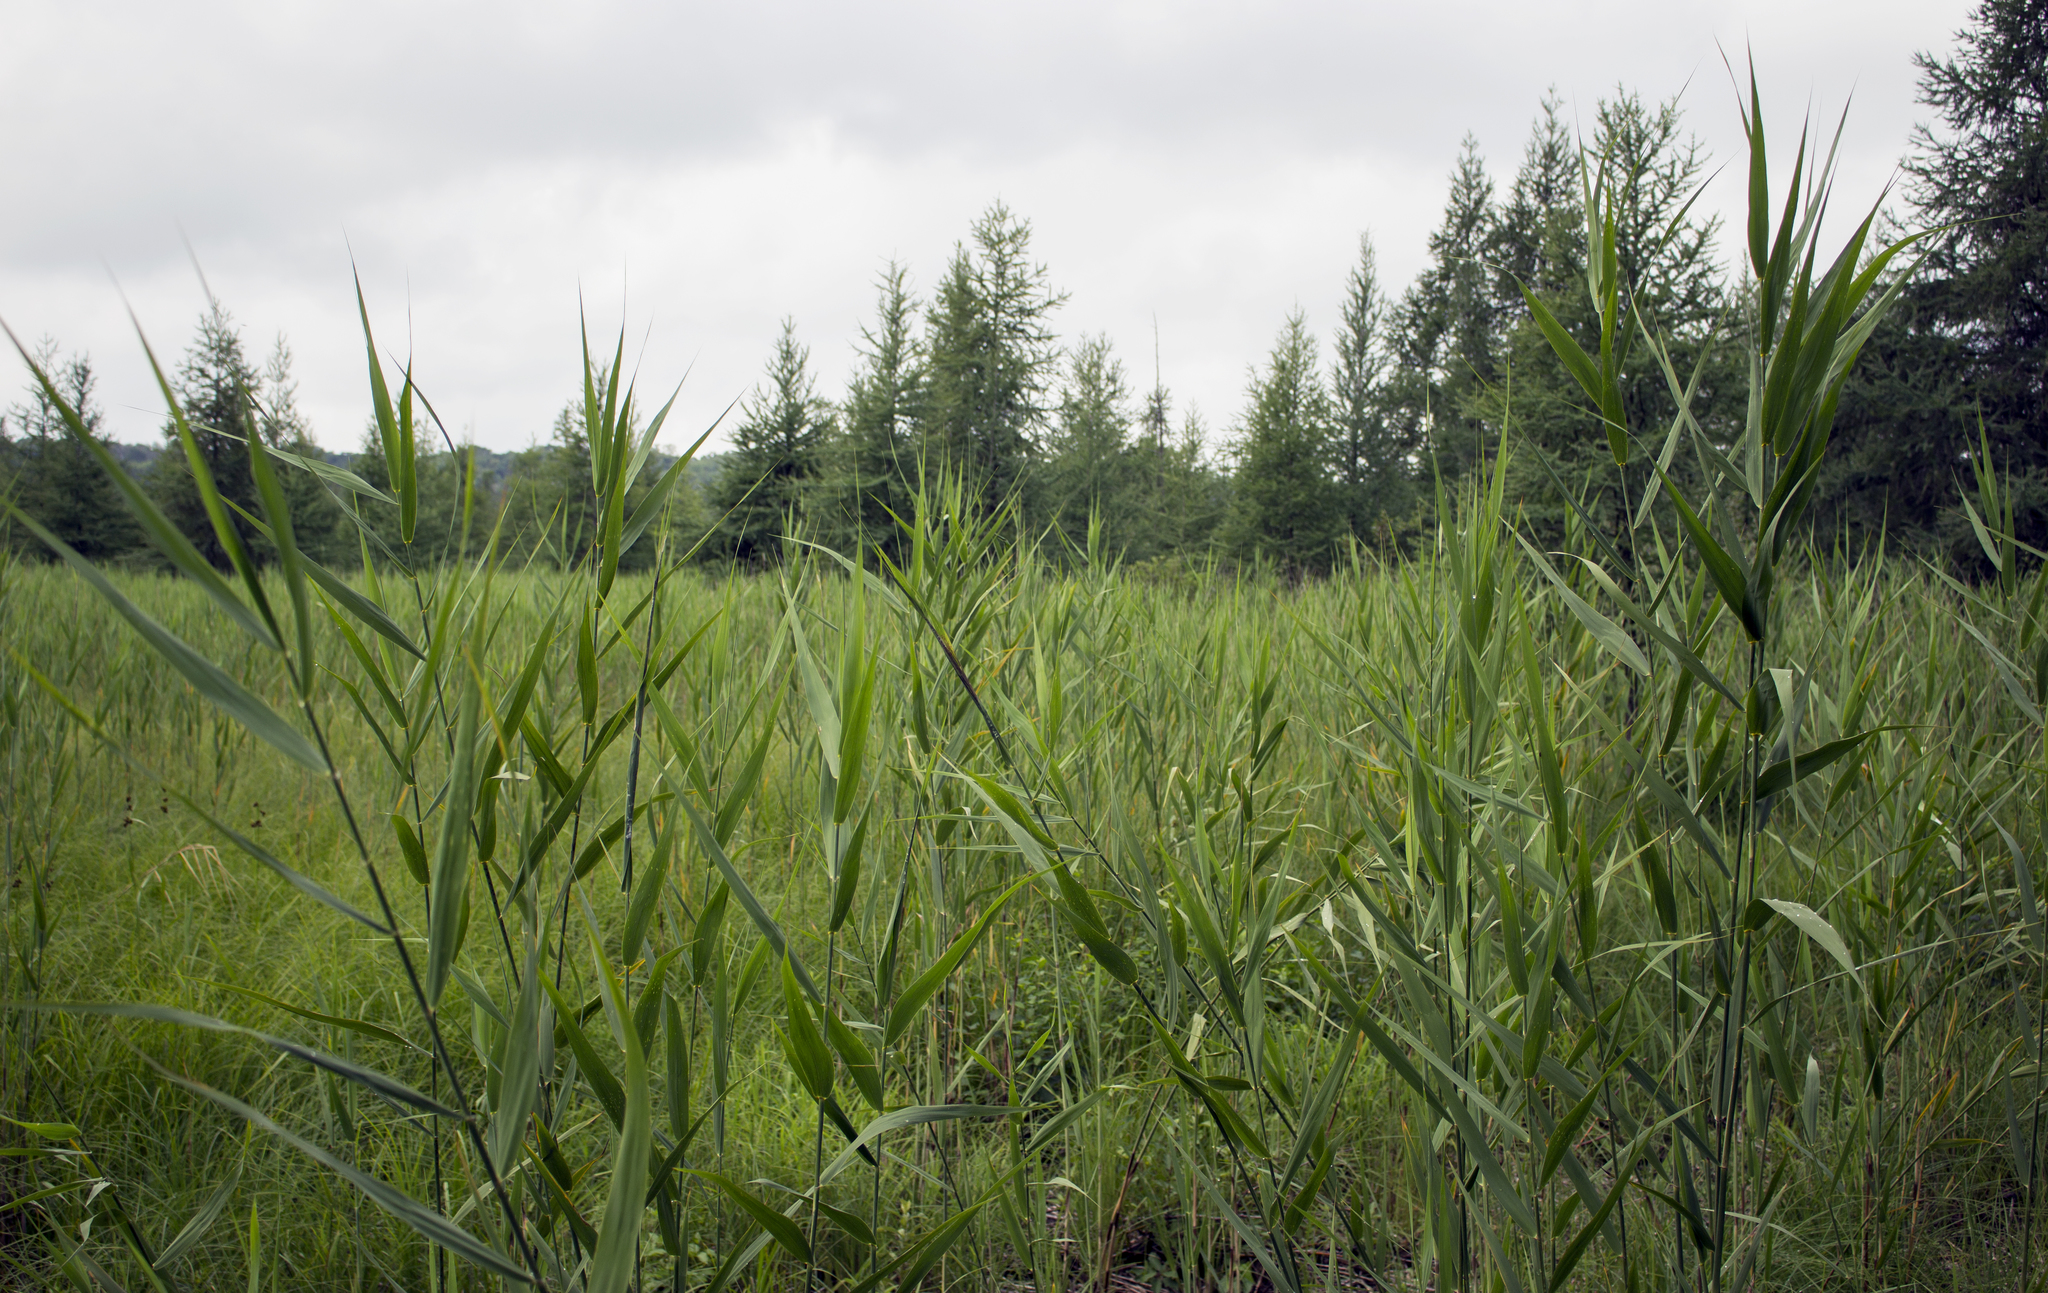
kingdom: Plantae
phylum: Tracheophyta
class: Liliopsida
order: Poales
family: Poaceae
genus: Phragmites
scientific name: Phragmites australis
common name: Common reed
